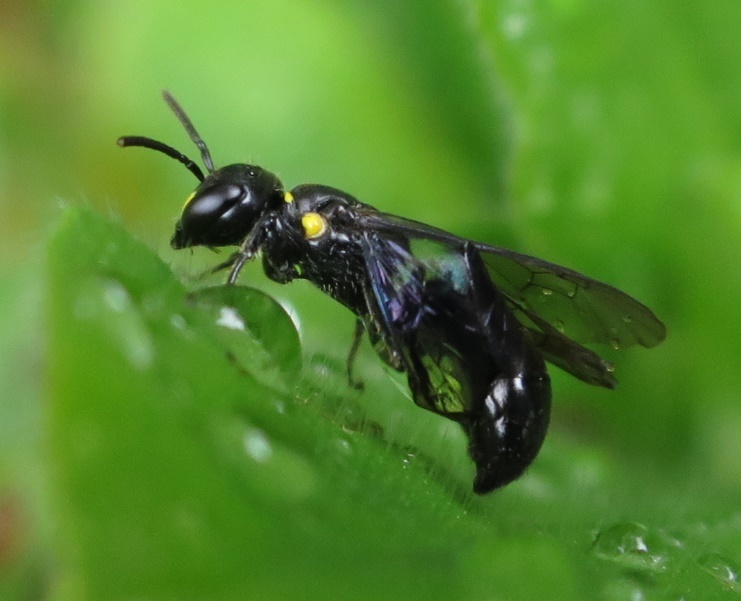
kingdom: Animalia
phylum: Arthropoda
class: Insecta
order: Hymenoptera
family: Colletidae
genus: Hylaeus
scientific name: Hylaeus relegatus
